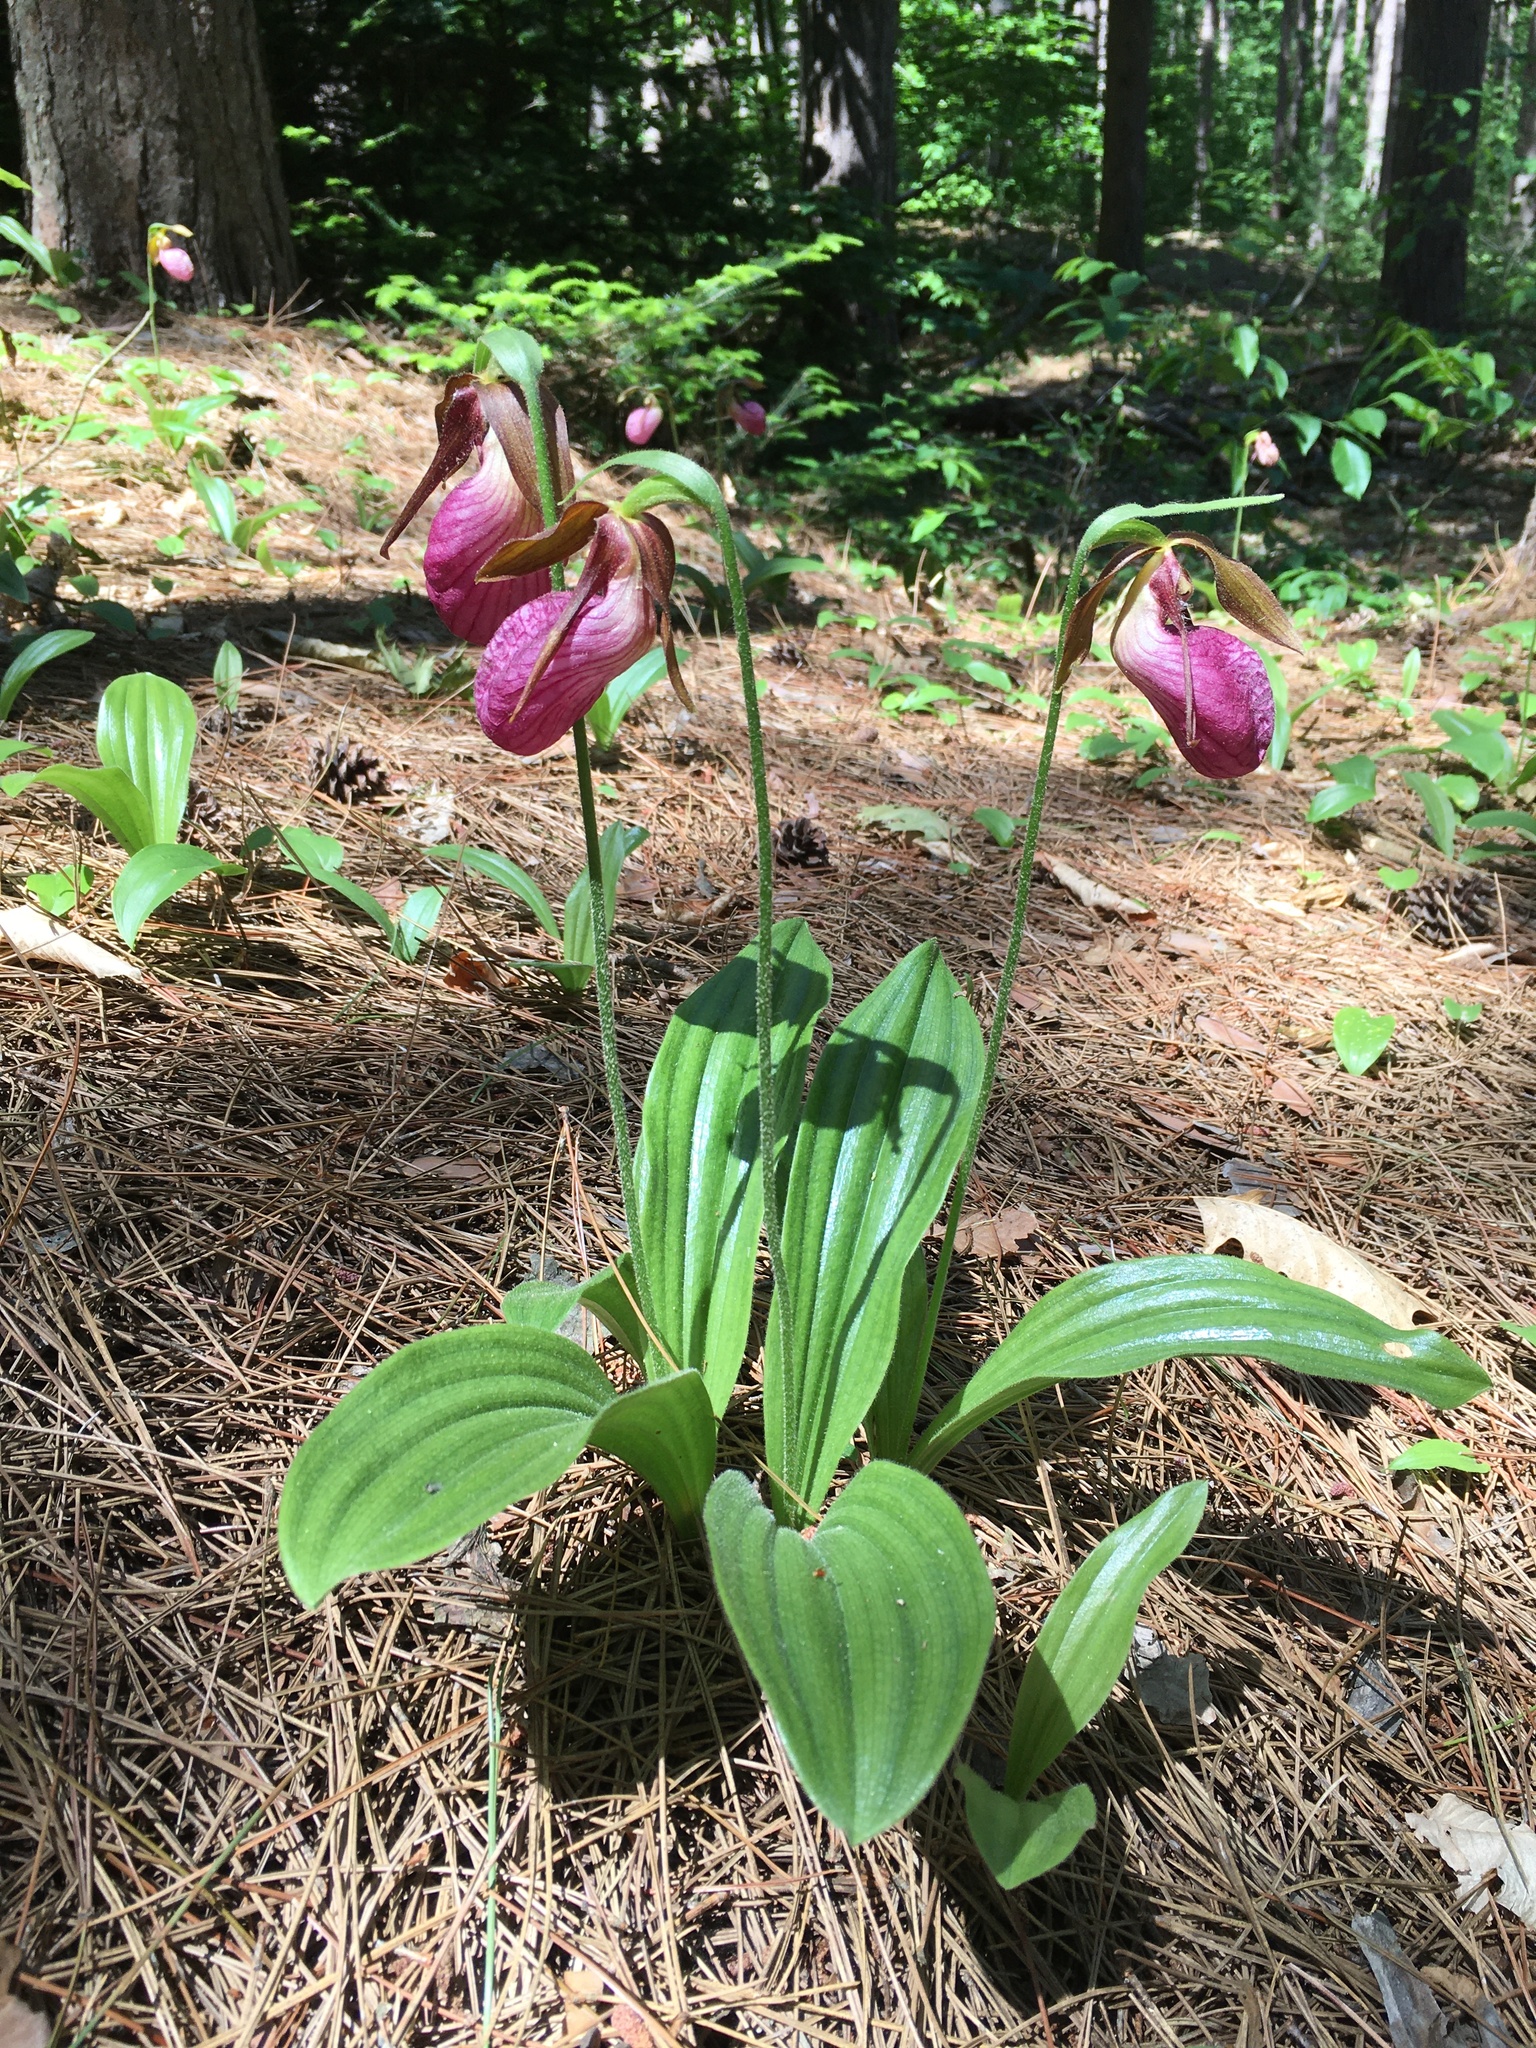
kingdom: Plantae
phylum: Tracheophyta
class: Liliopsida
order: Asparagales
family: Orchidaceae
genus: Cypripedium
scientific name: Cypripedium acaule
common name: Pink lady's-slipper
